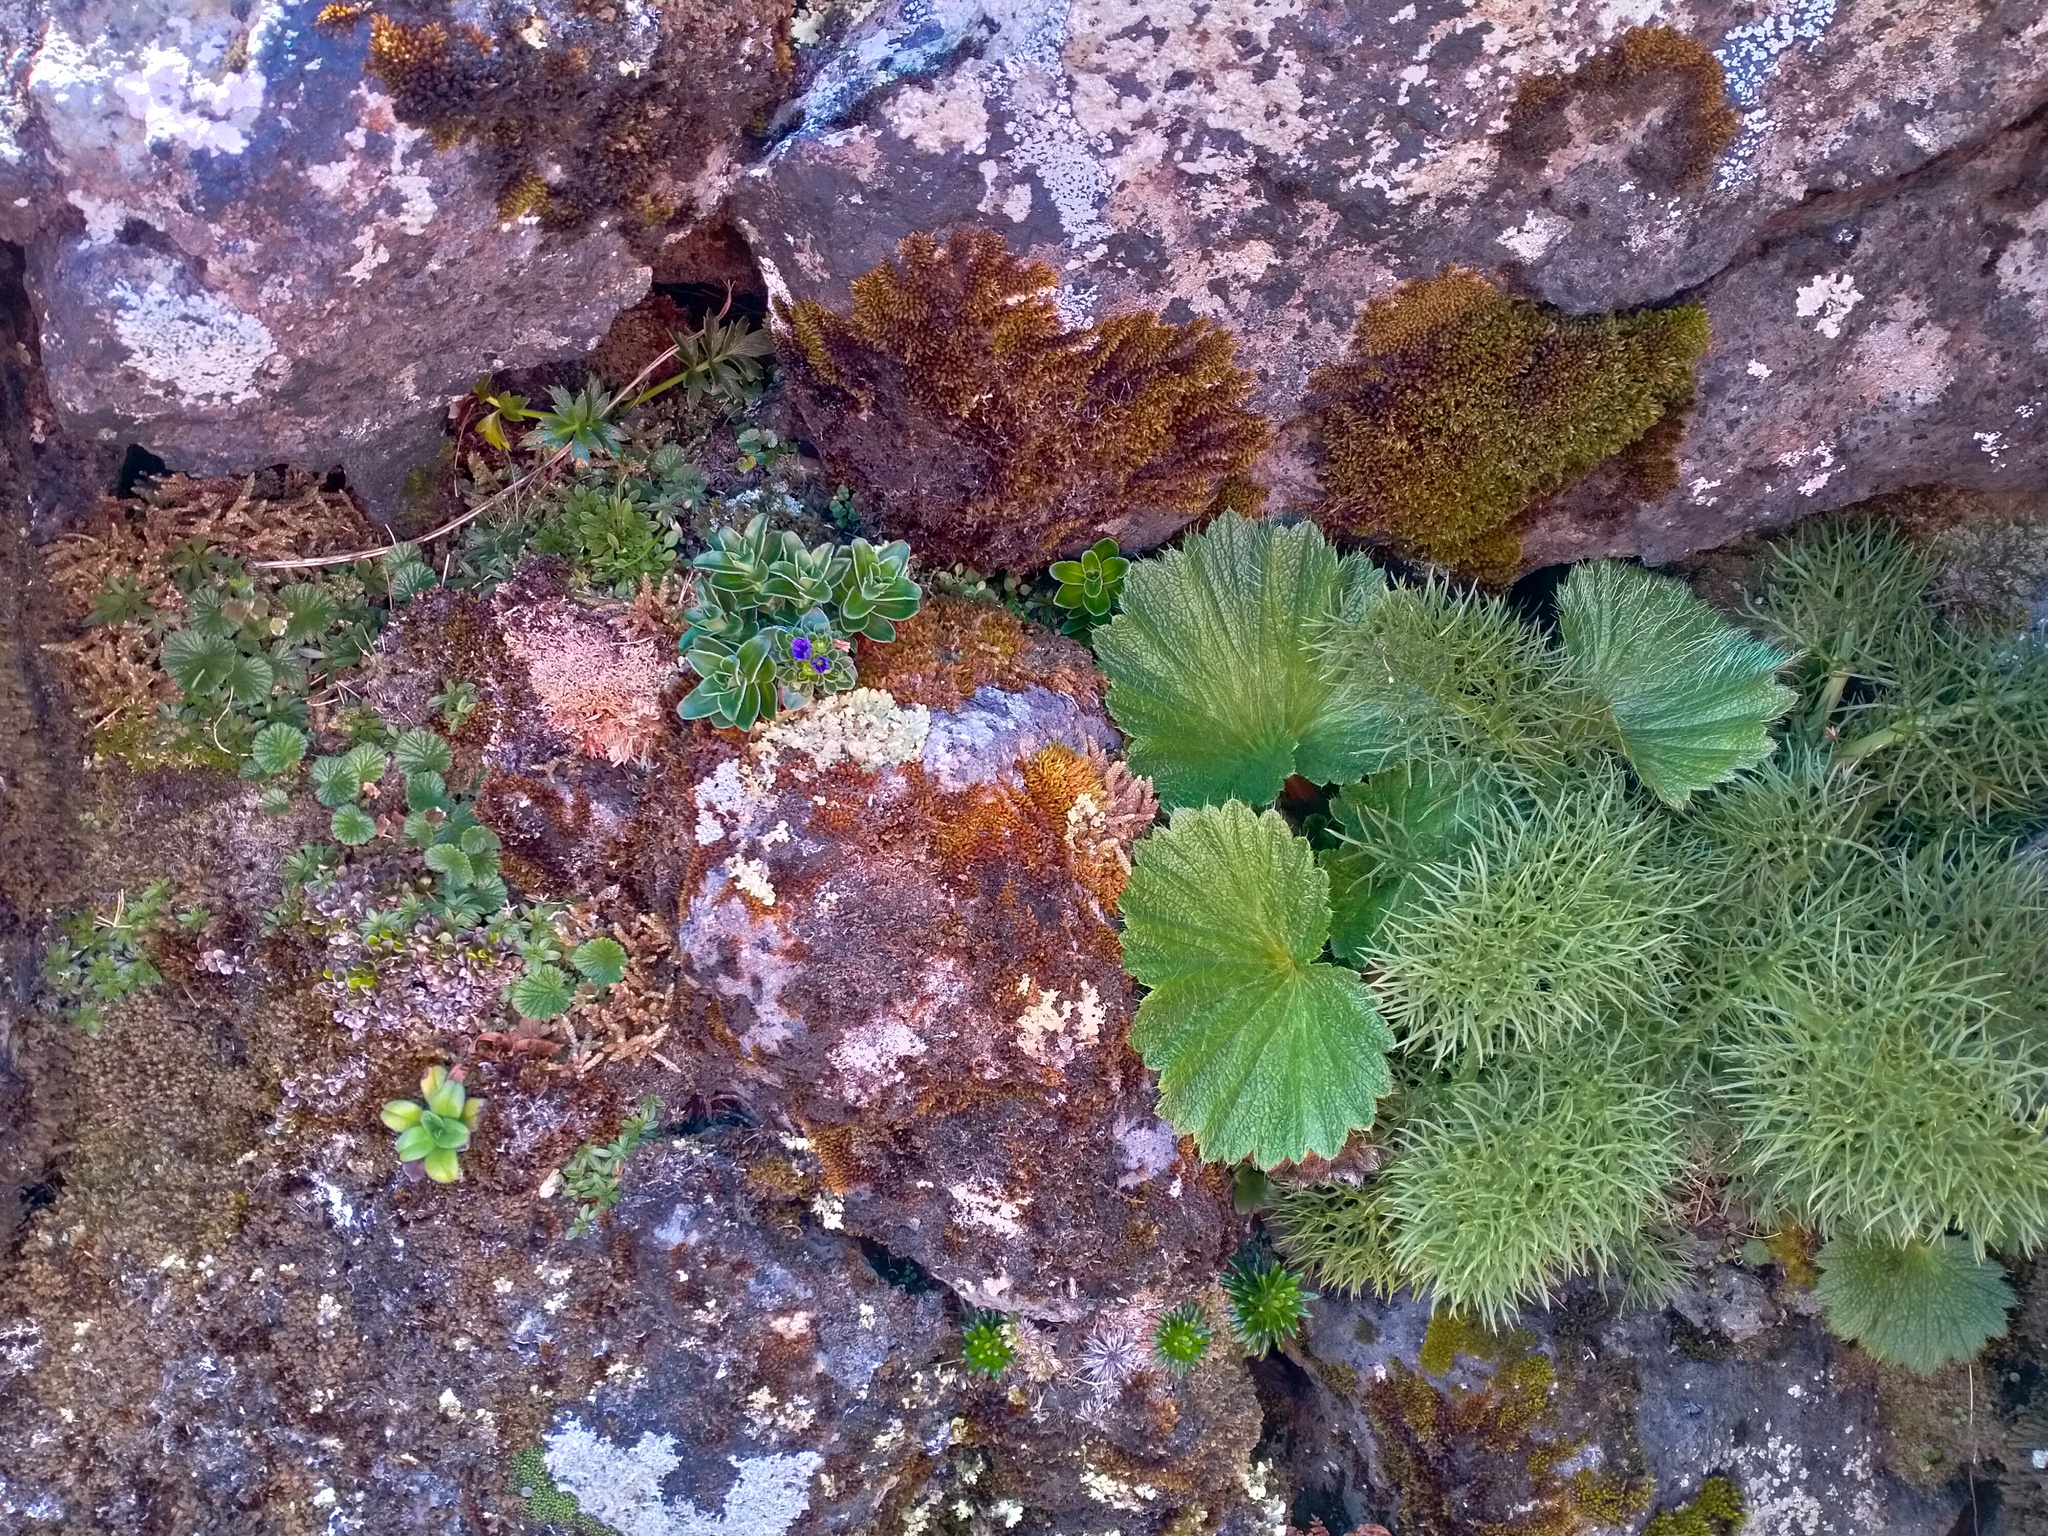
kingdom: Plantae
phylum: Tracheophyta
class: Magnoliopsida
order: Lamiales
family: Plantaginaceae
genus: Veronica
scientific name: Veronica benthamii
